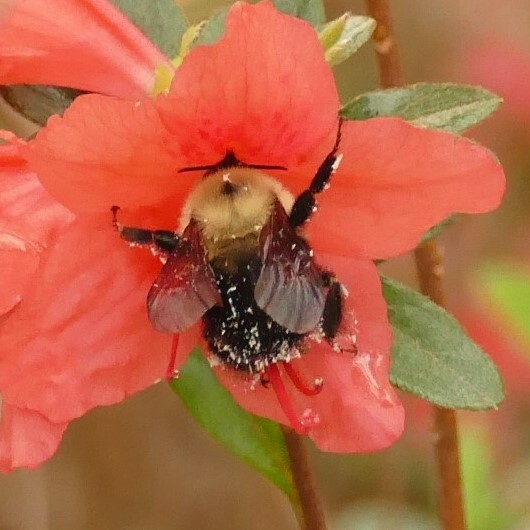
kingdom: Animalia
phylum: Arthropoda
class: Insecta
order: Hymenoptera
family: Apidae
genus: Bombus
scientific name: Bombus bimaculatus
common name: Two-spotted bumble bee
